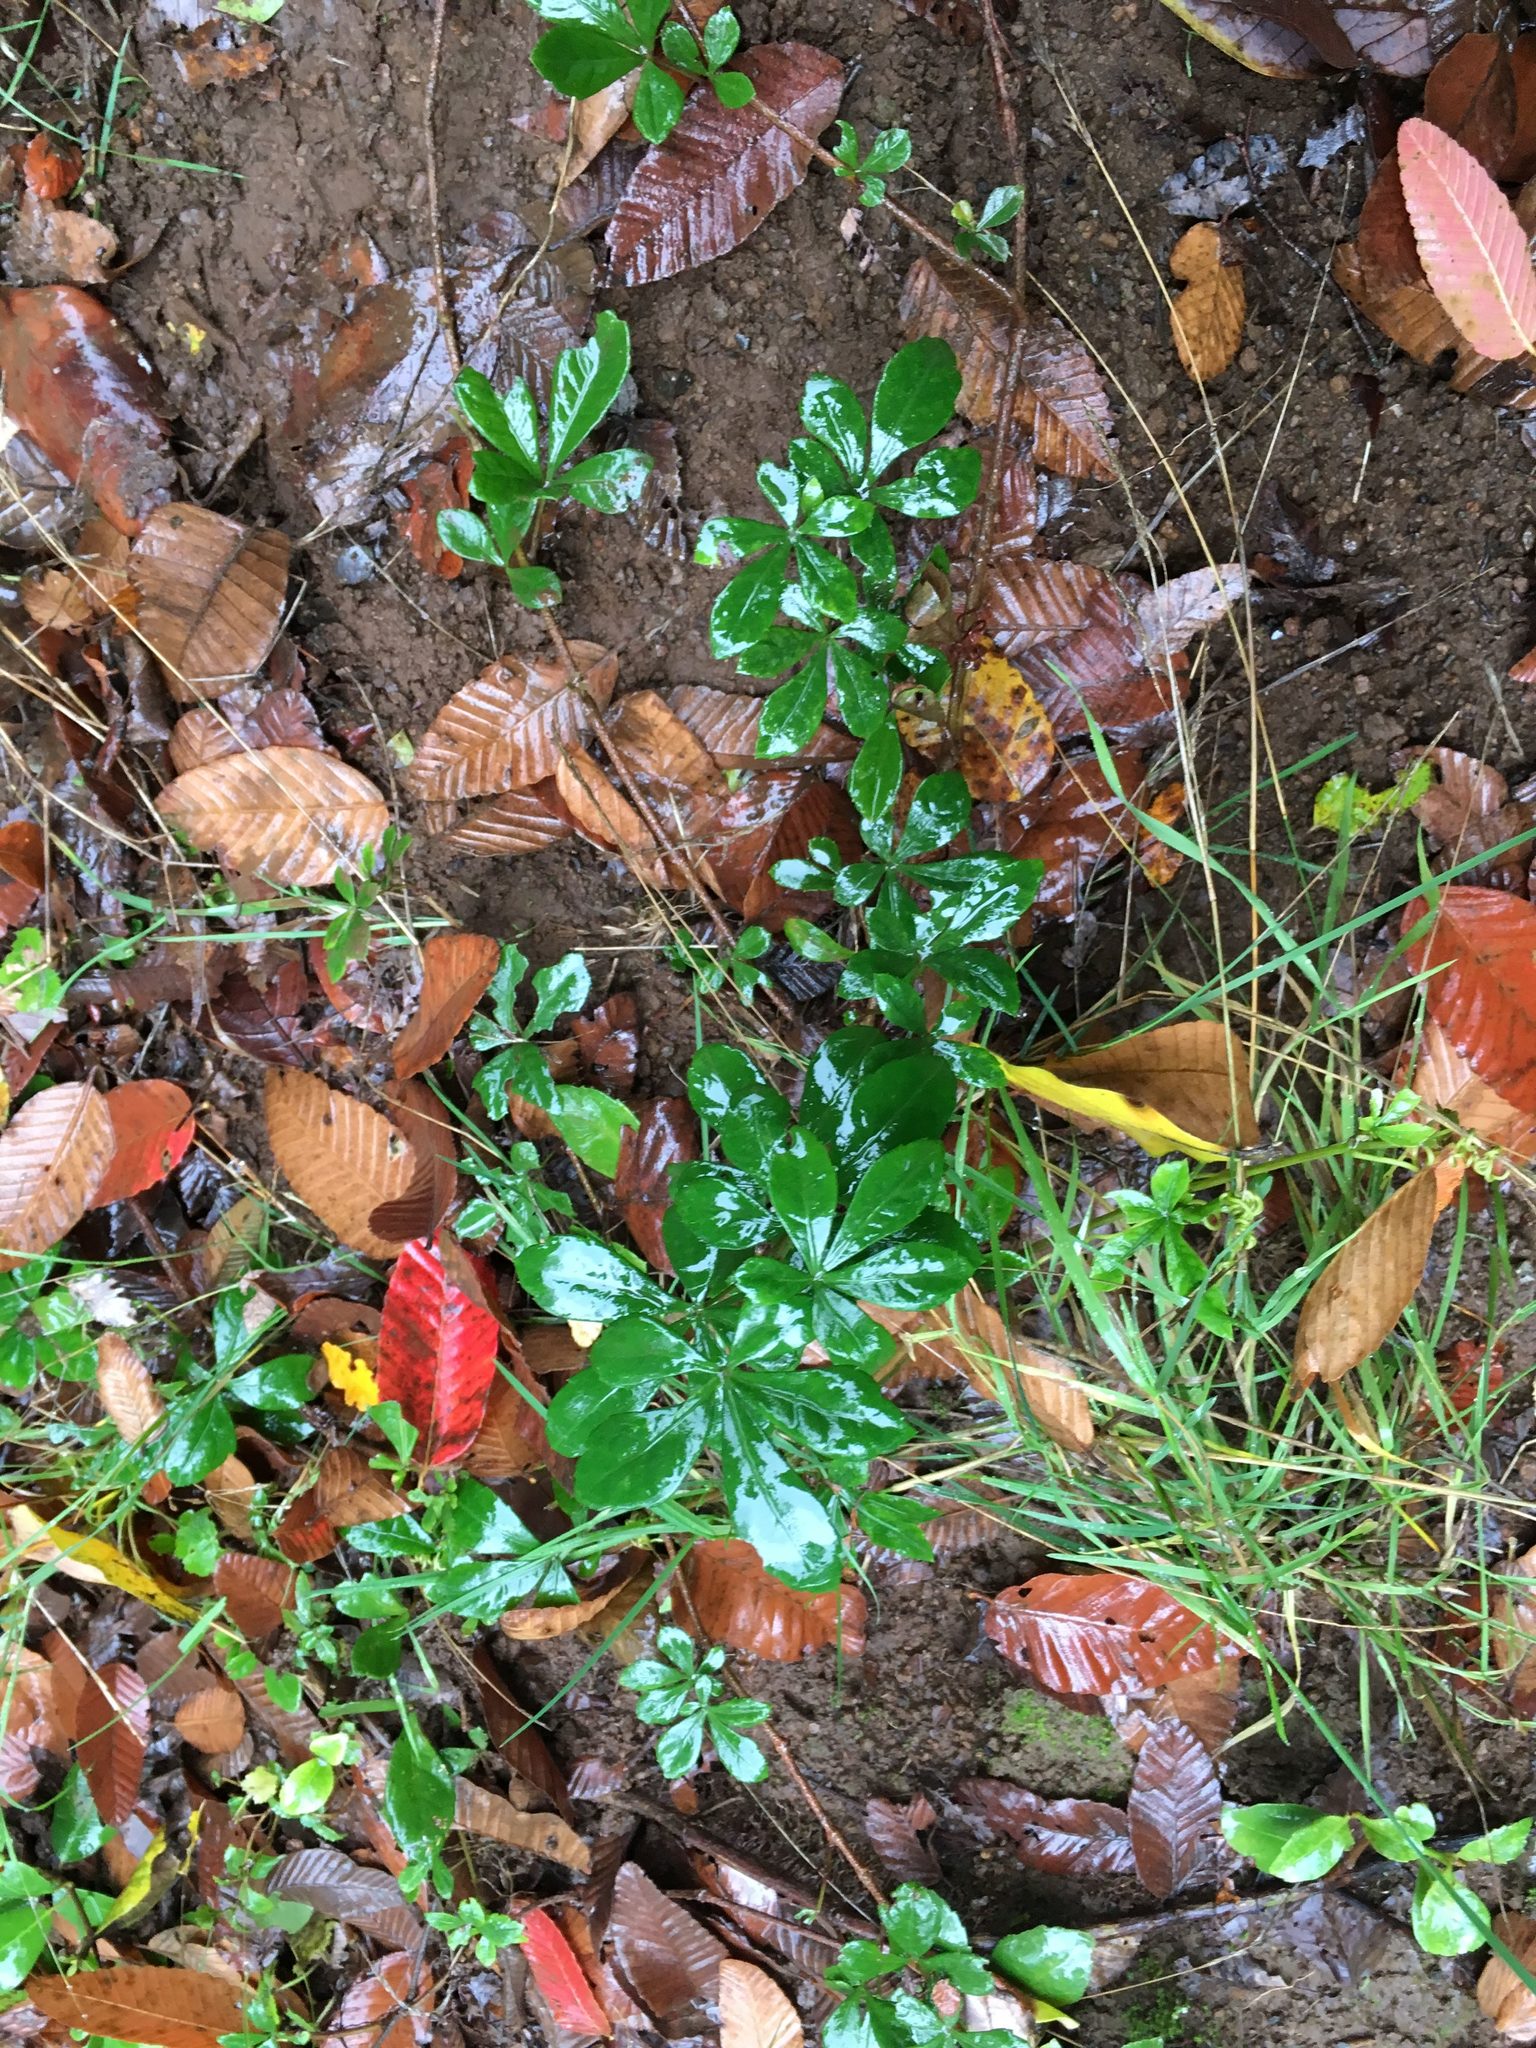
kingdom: Plantae
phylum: Tracheophyta
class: Magnoliopsida
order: Vitales
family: Vitaceae
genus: Clematicissus
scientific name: Clematicissus striata
